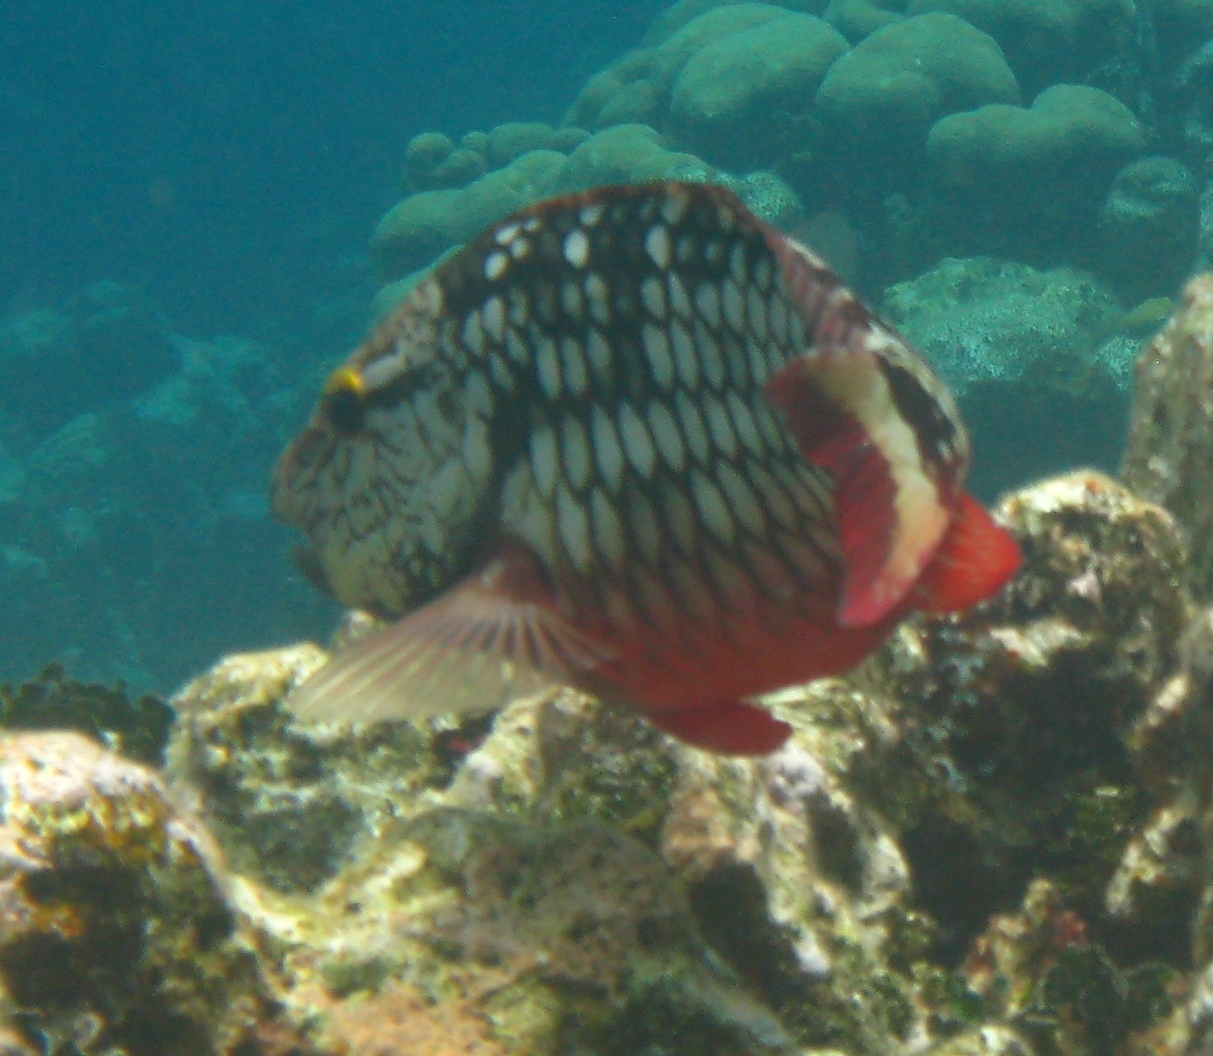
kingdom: Animalia
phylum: Chordata
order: Perciformes
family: Scaridae
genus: Sparisoma
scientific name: Sparisoma viride
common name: Stoplight parrotfish
